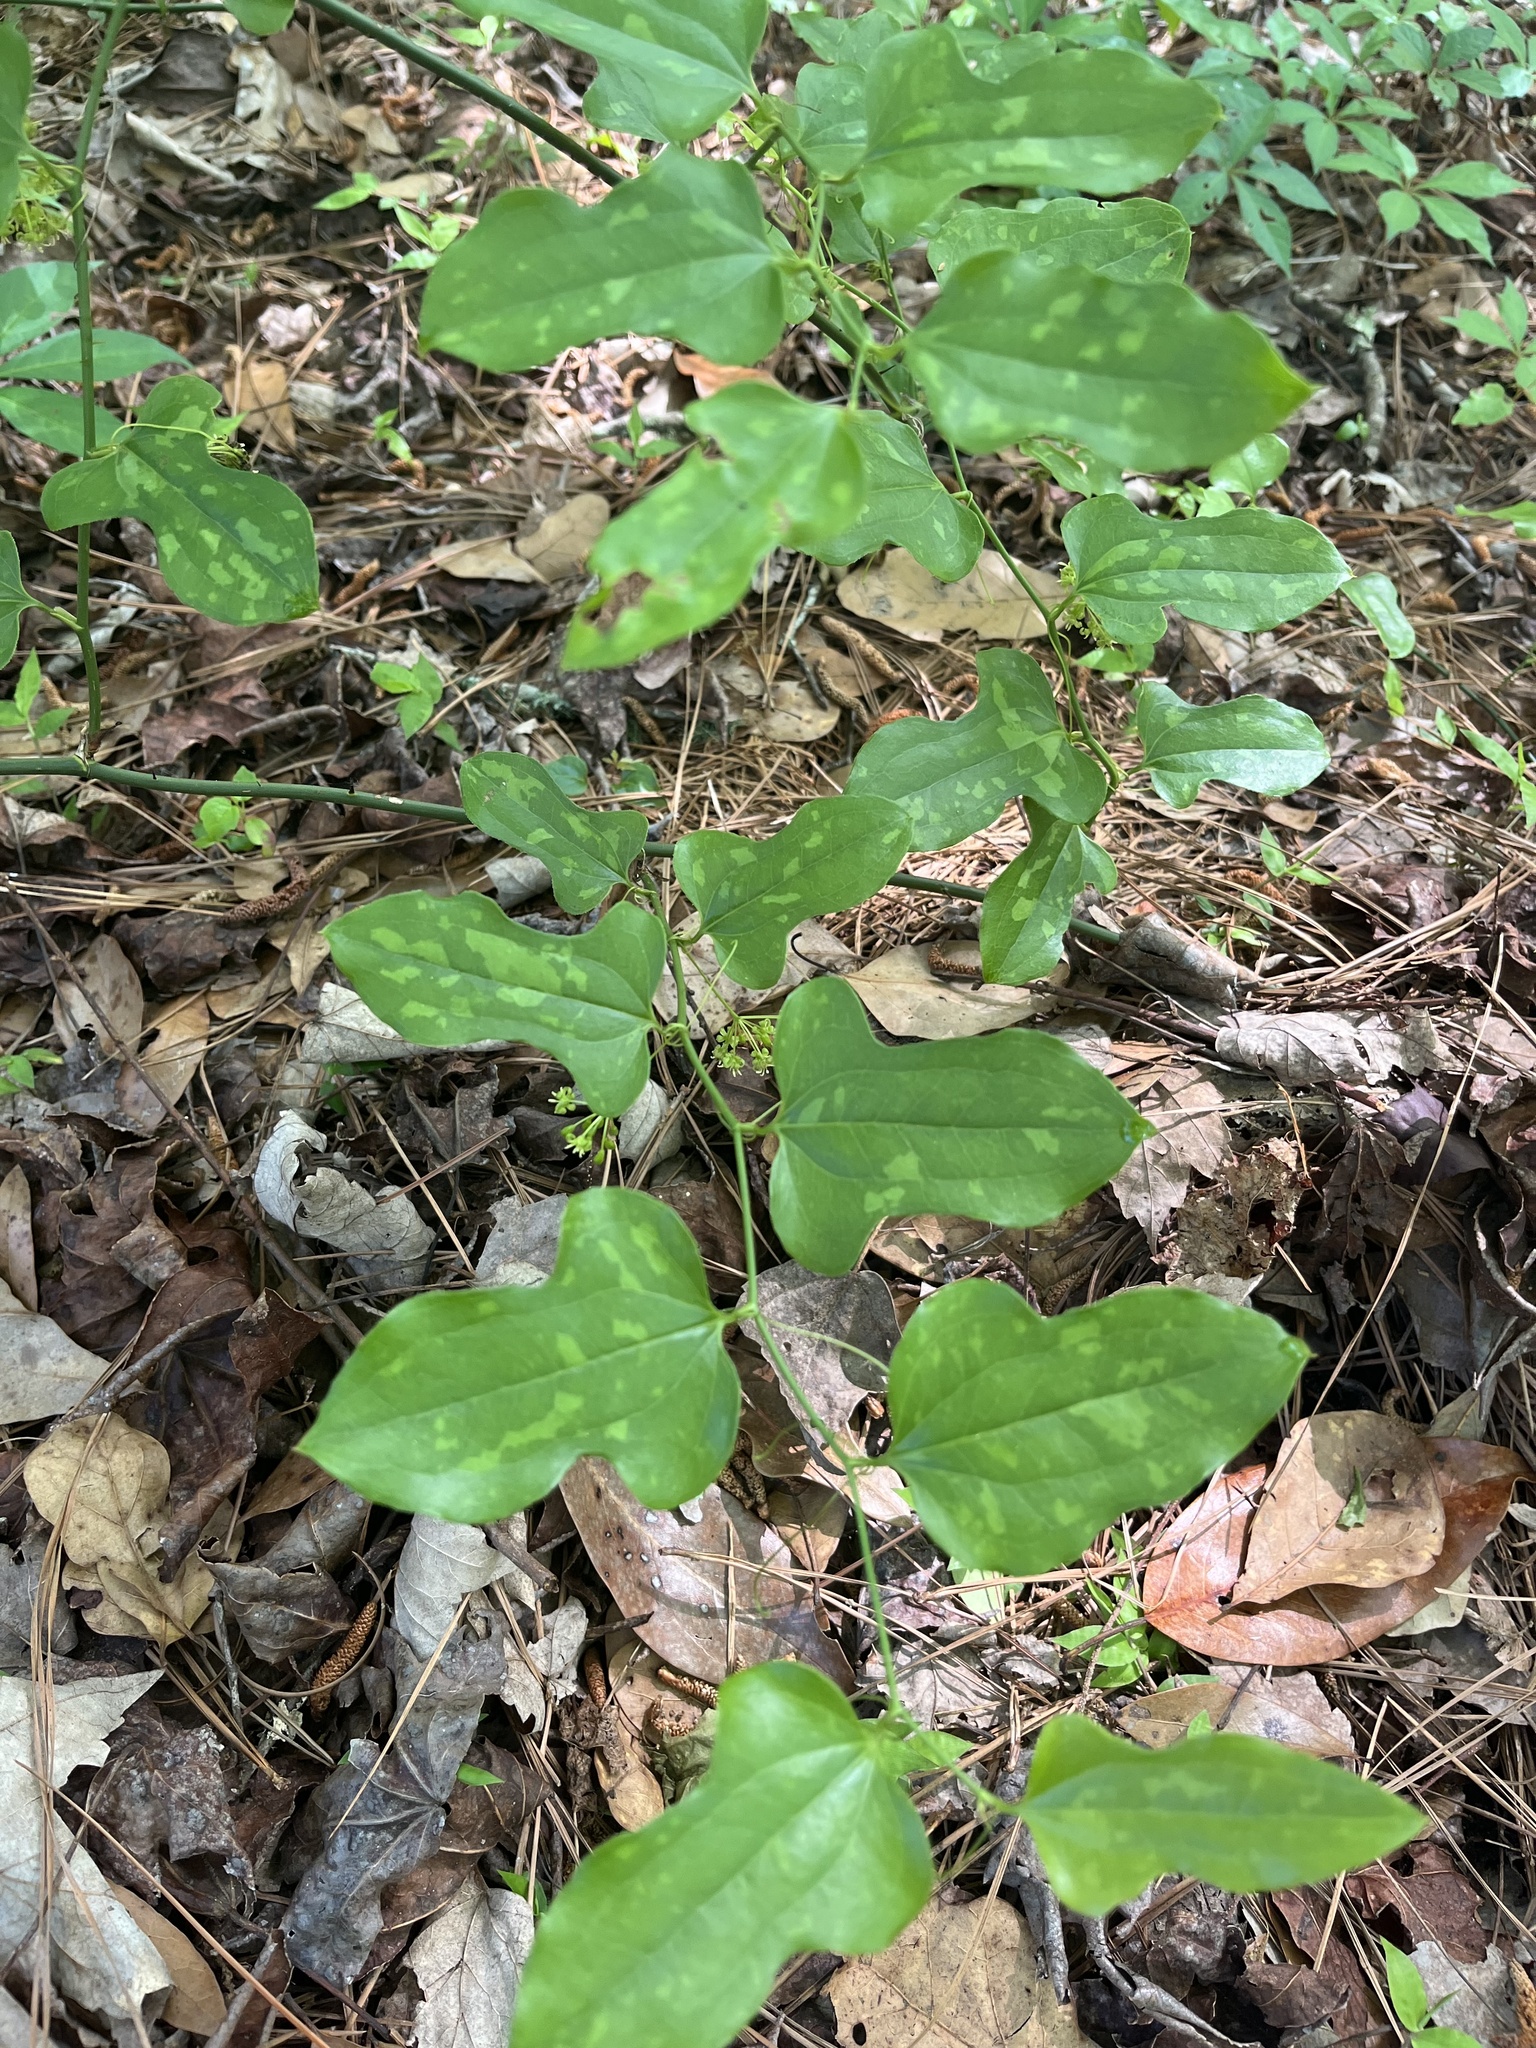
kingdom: Plantae
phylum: Tracheophyta
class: Liliopsida
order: Liliales
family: Smilacaceae
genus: Smilax
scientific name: Smilax tamnoides
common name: Hellfetter
